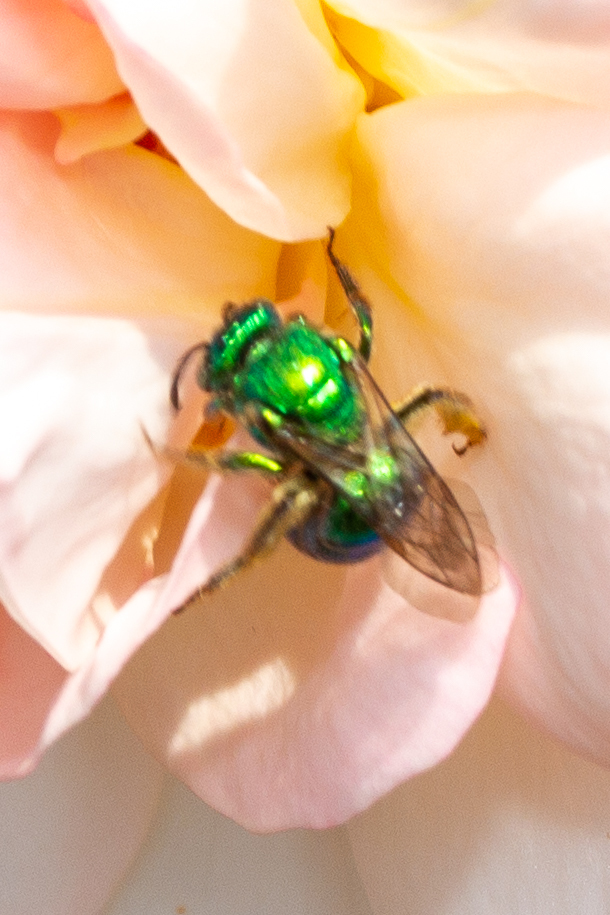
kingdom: Animalia
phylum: Arthropoda
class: Insecta
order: Hymenoptera
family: Halictidae
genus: Augochloropsis
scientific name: Augochloropsis viridula
